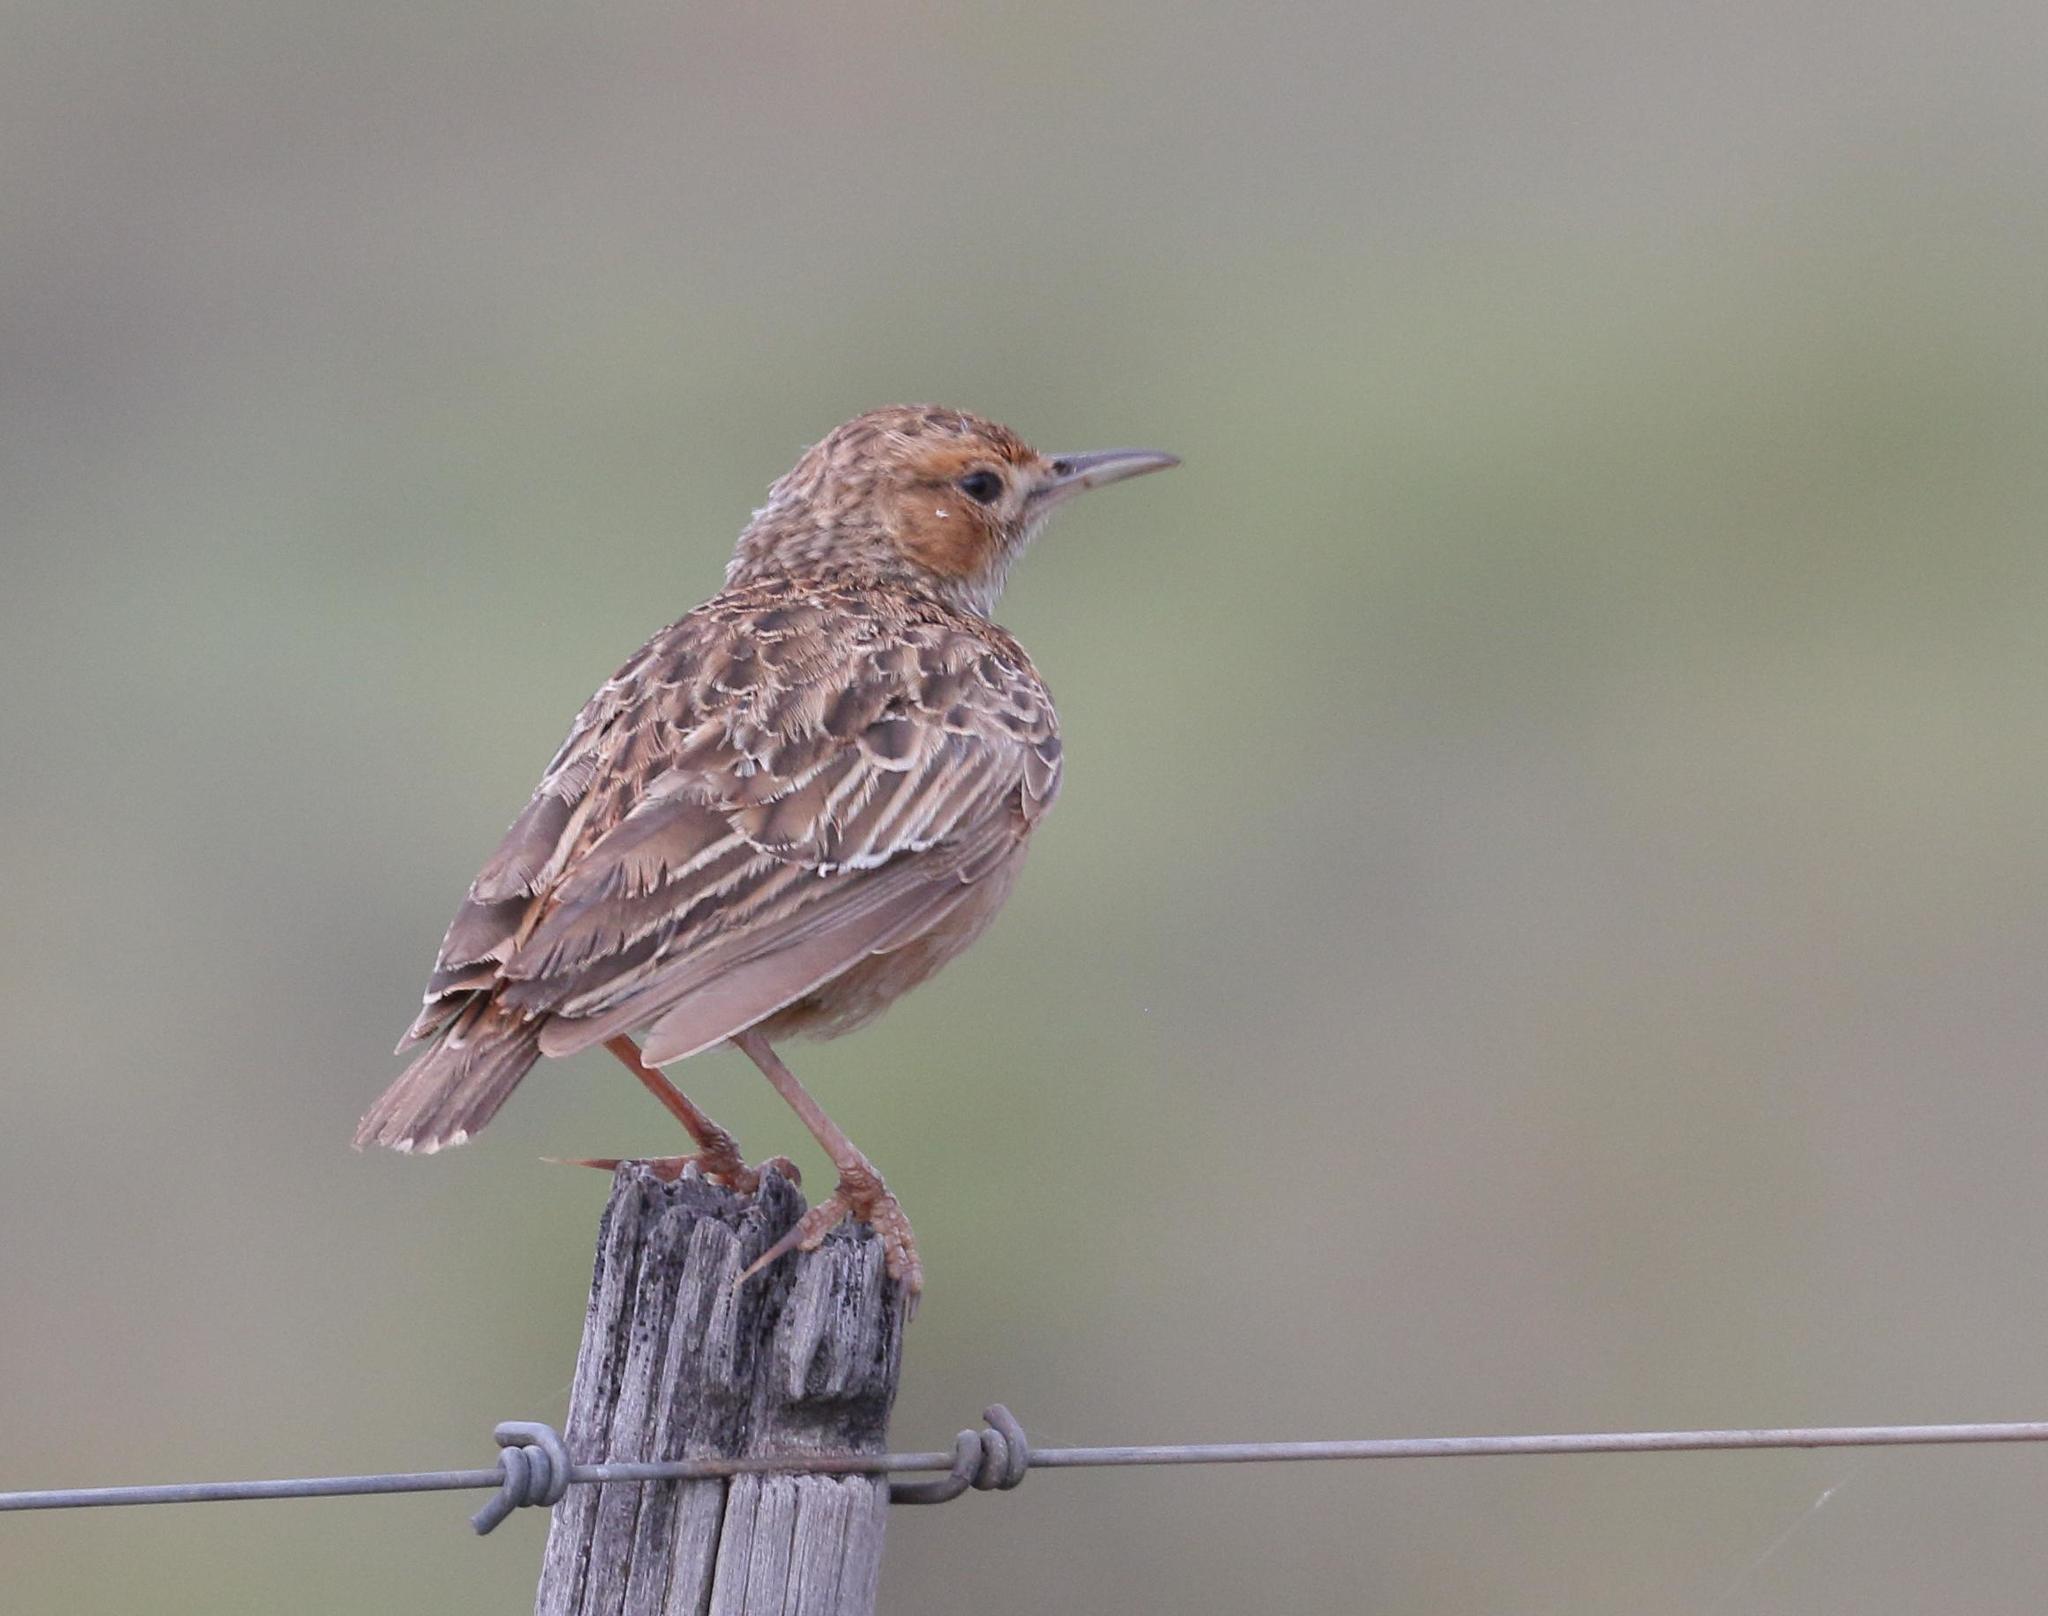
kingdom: Animalia
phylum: Chordata
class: Aves
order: Passeriformes
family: Alaudidae
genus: Chersomanes
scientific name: Chersomanes albofasciata
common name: Spike-heeled lark
